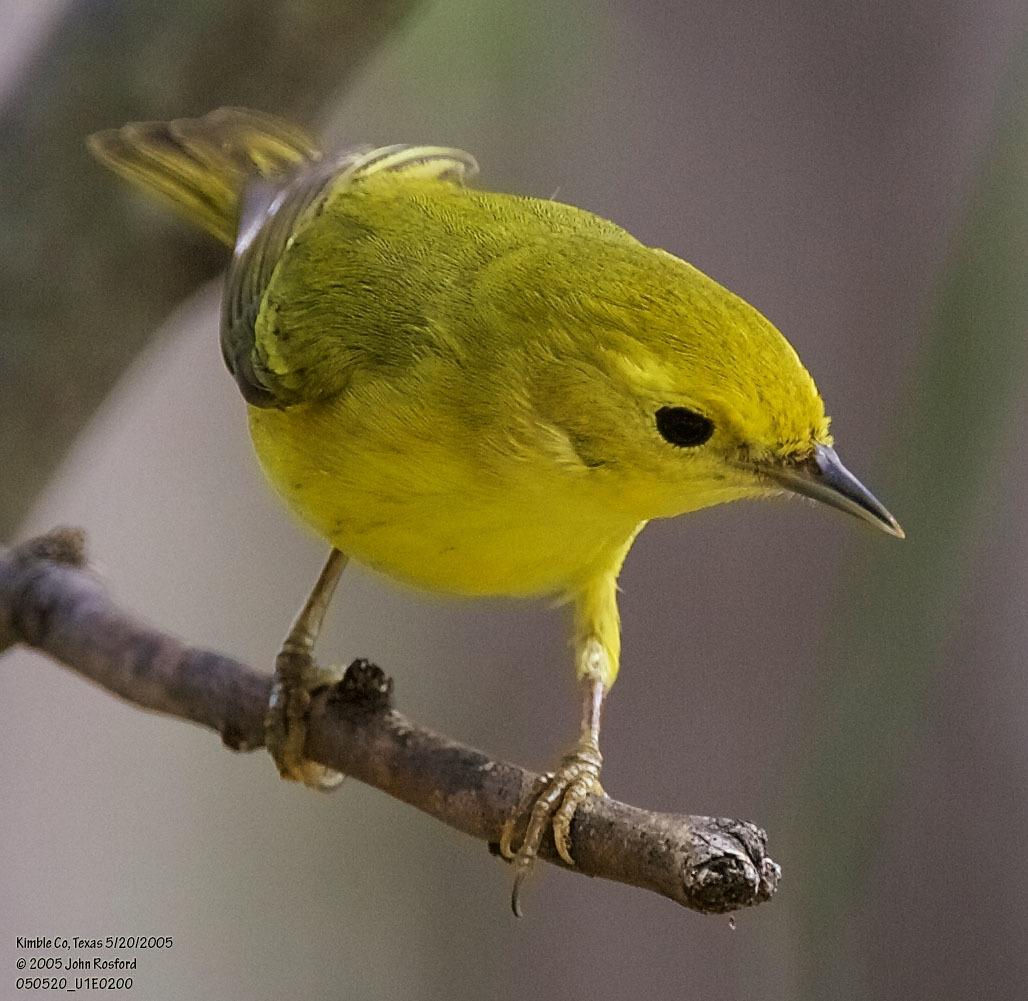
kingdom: Animalia
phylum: Chordata
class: Aves
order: Passeriformes
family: Parulidae
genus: Setophaga
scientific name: Setophaga petechia
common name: Yellow warbler
